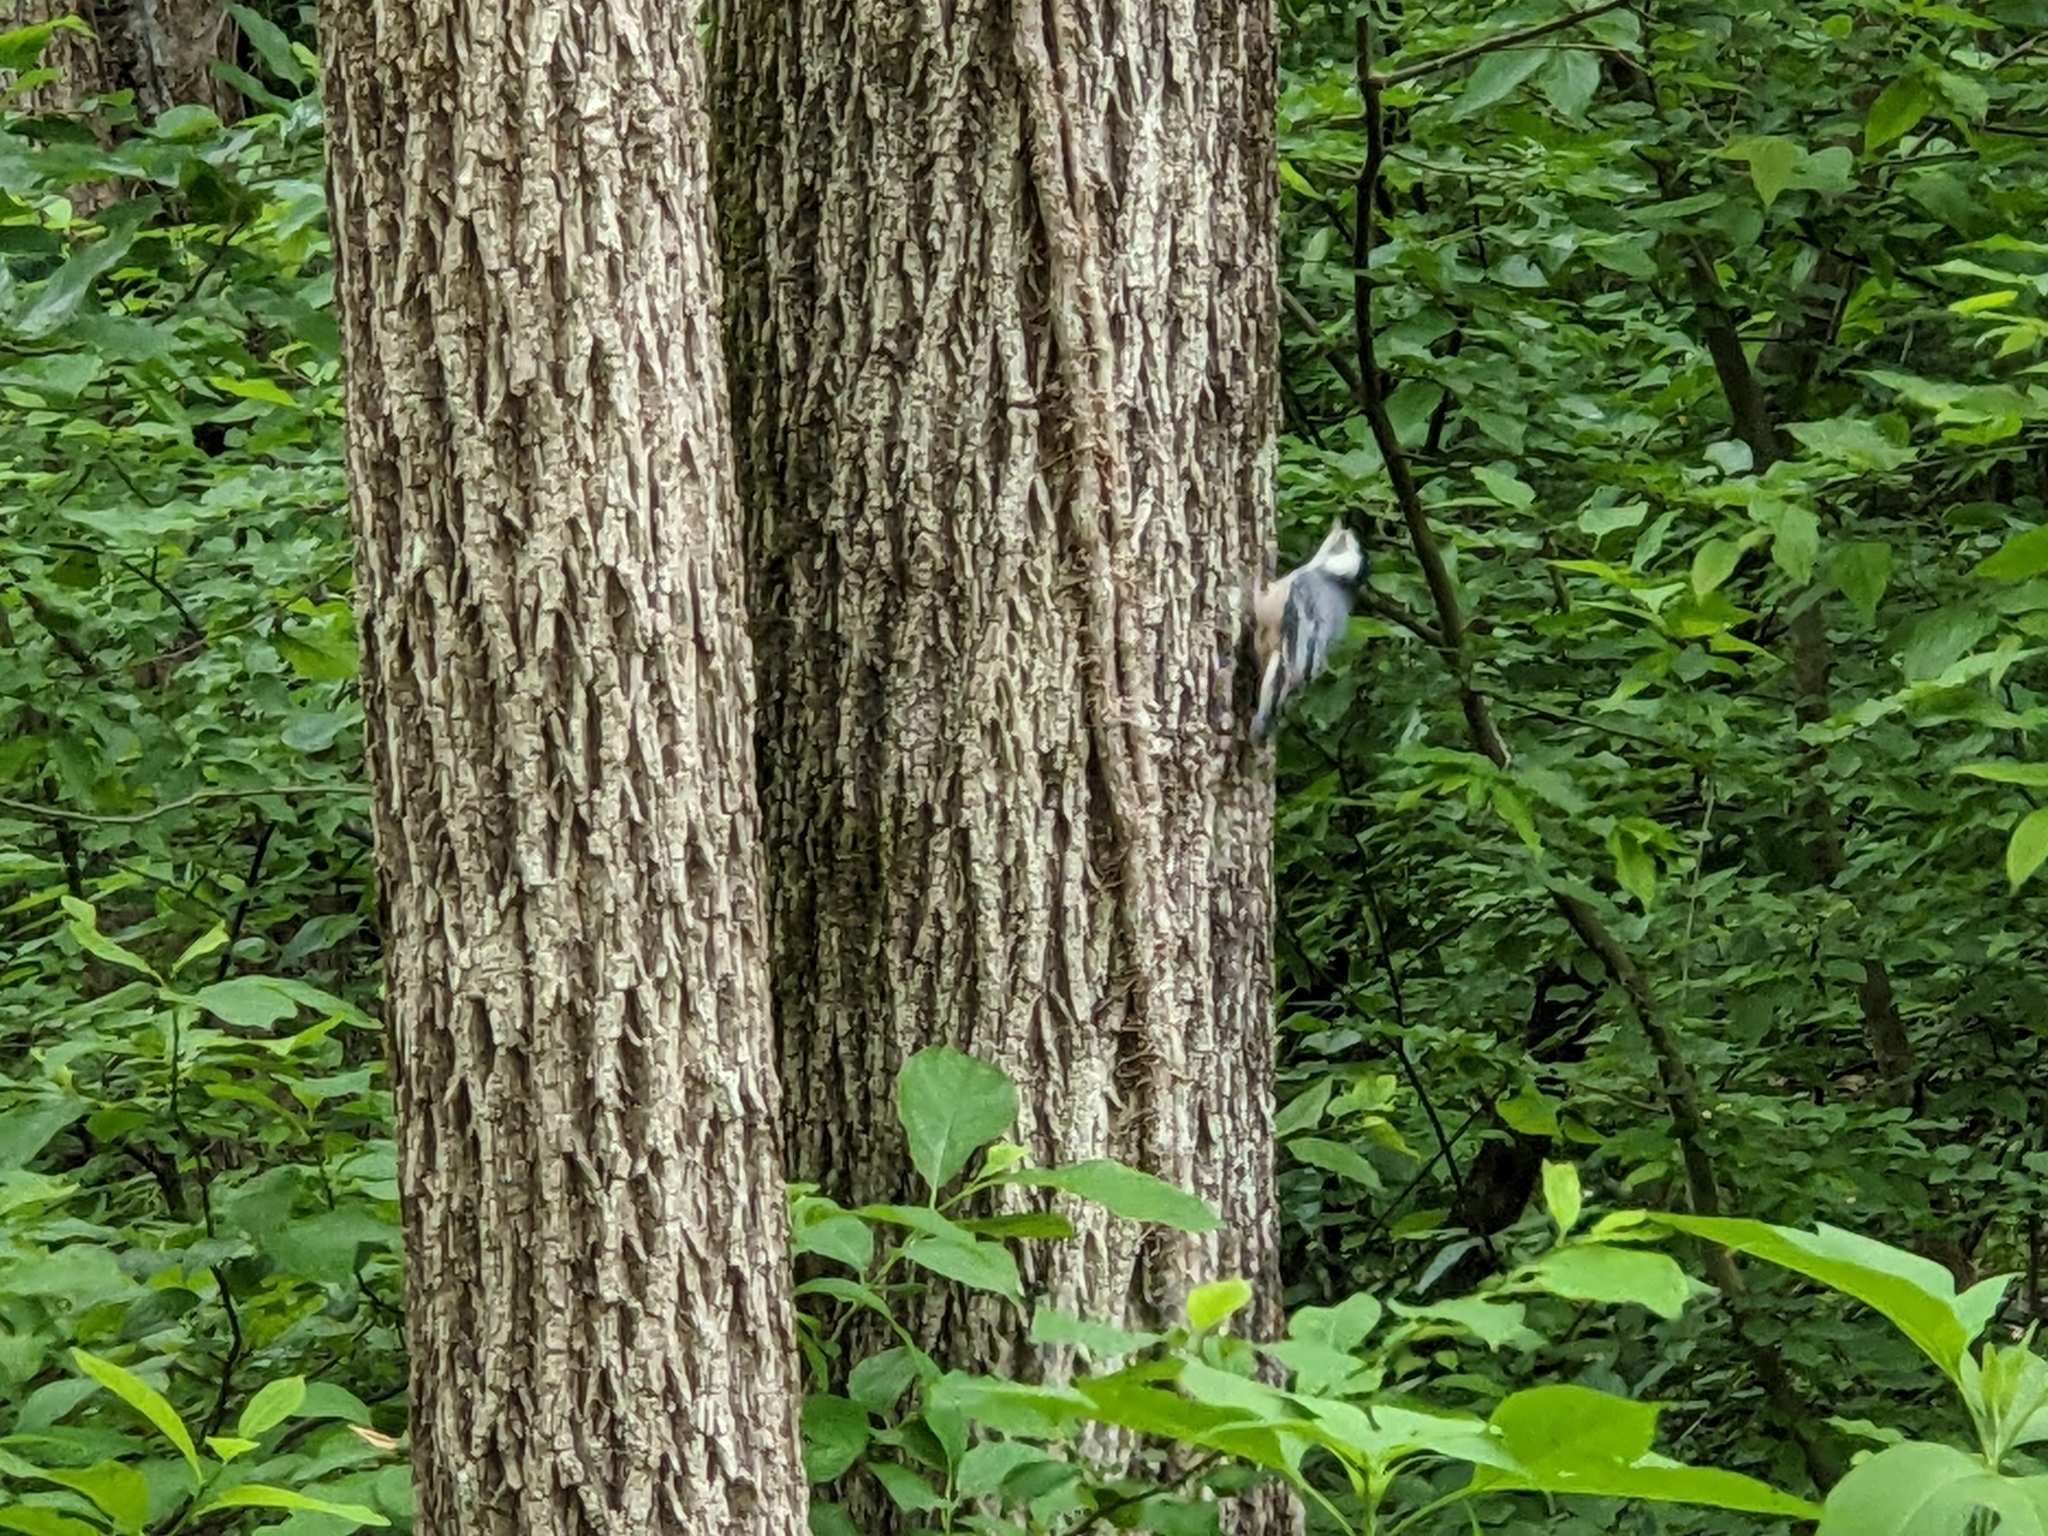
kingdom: Animalia
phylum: Chordata
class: Aves
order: Passeriformes
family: Sittidae
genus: Sitta
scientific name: Sitta carolinensis
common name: White-breasted nuthatch
